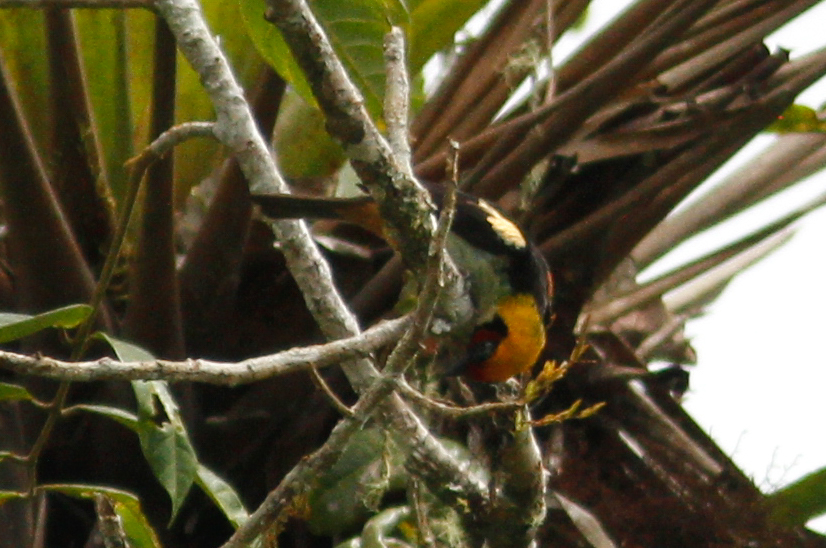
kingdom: Animalia
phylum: Chordata
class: Aves
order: Passeriformes
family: Thraupidae
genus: Tangara
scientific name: Tangara parzudakii
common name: Flame-faced tanager
